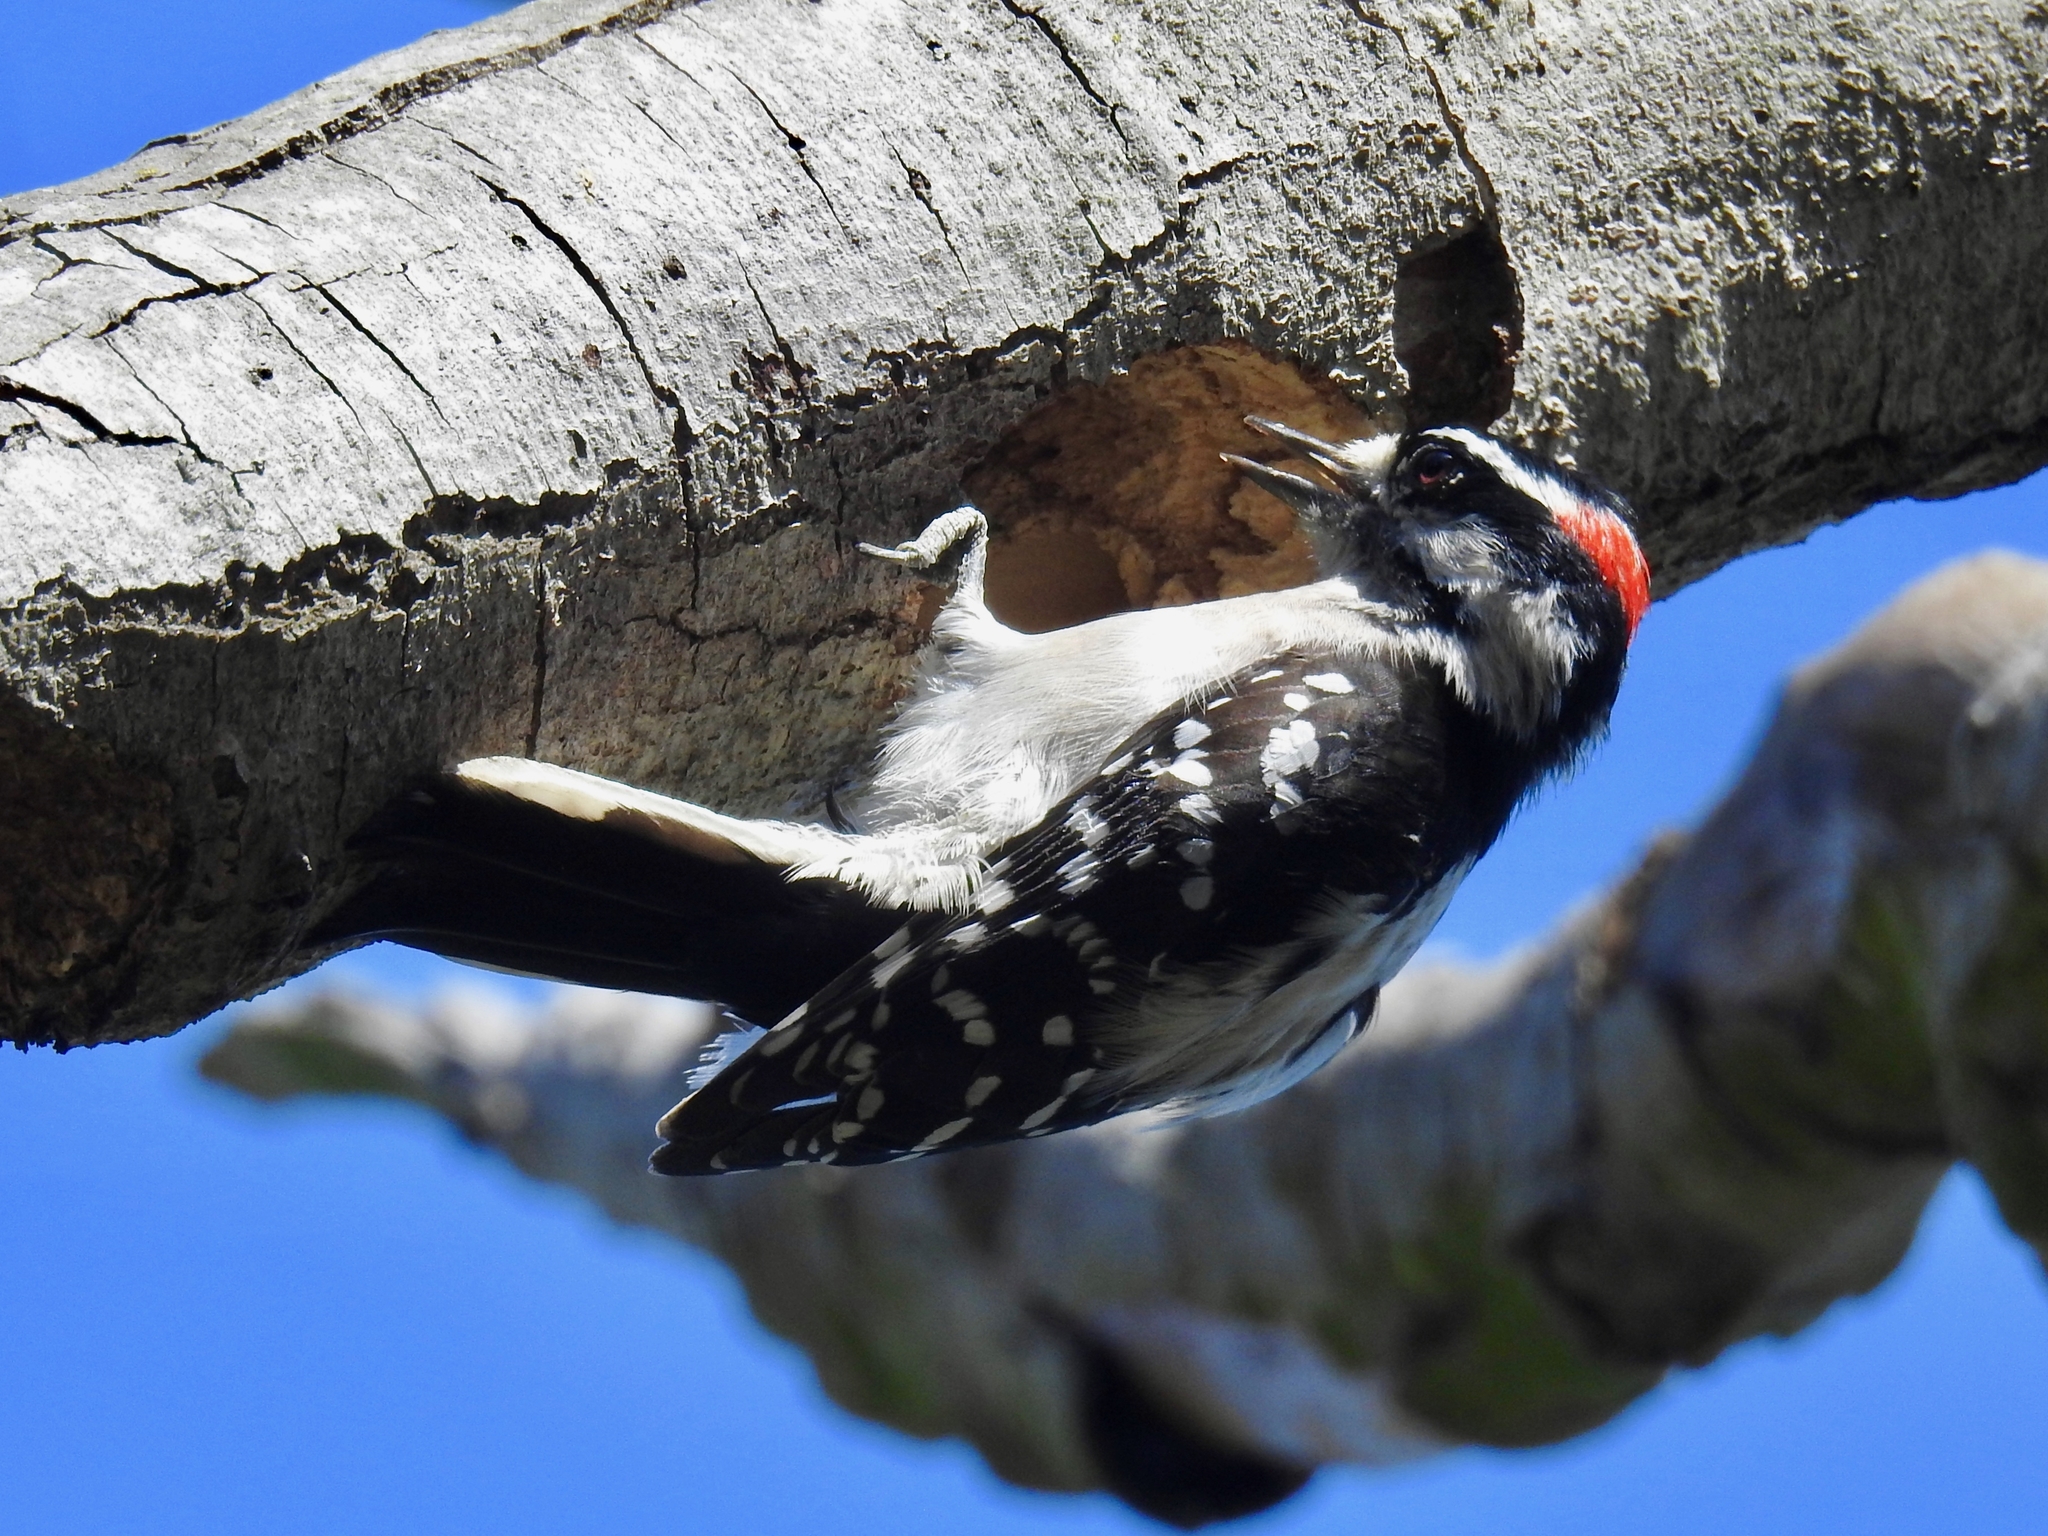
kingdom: Animalia
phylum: Chordata
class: Aves
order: Piciformes
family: Picidae
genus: Dryobates
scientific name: Dryobates pubescens
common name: Downy woodpecker
